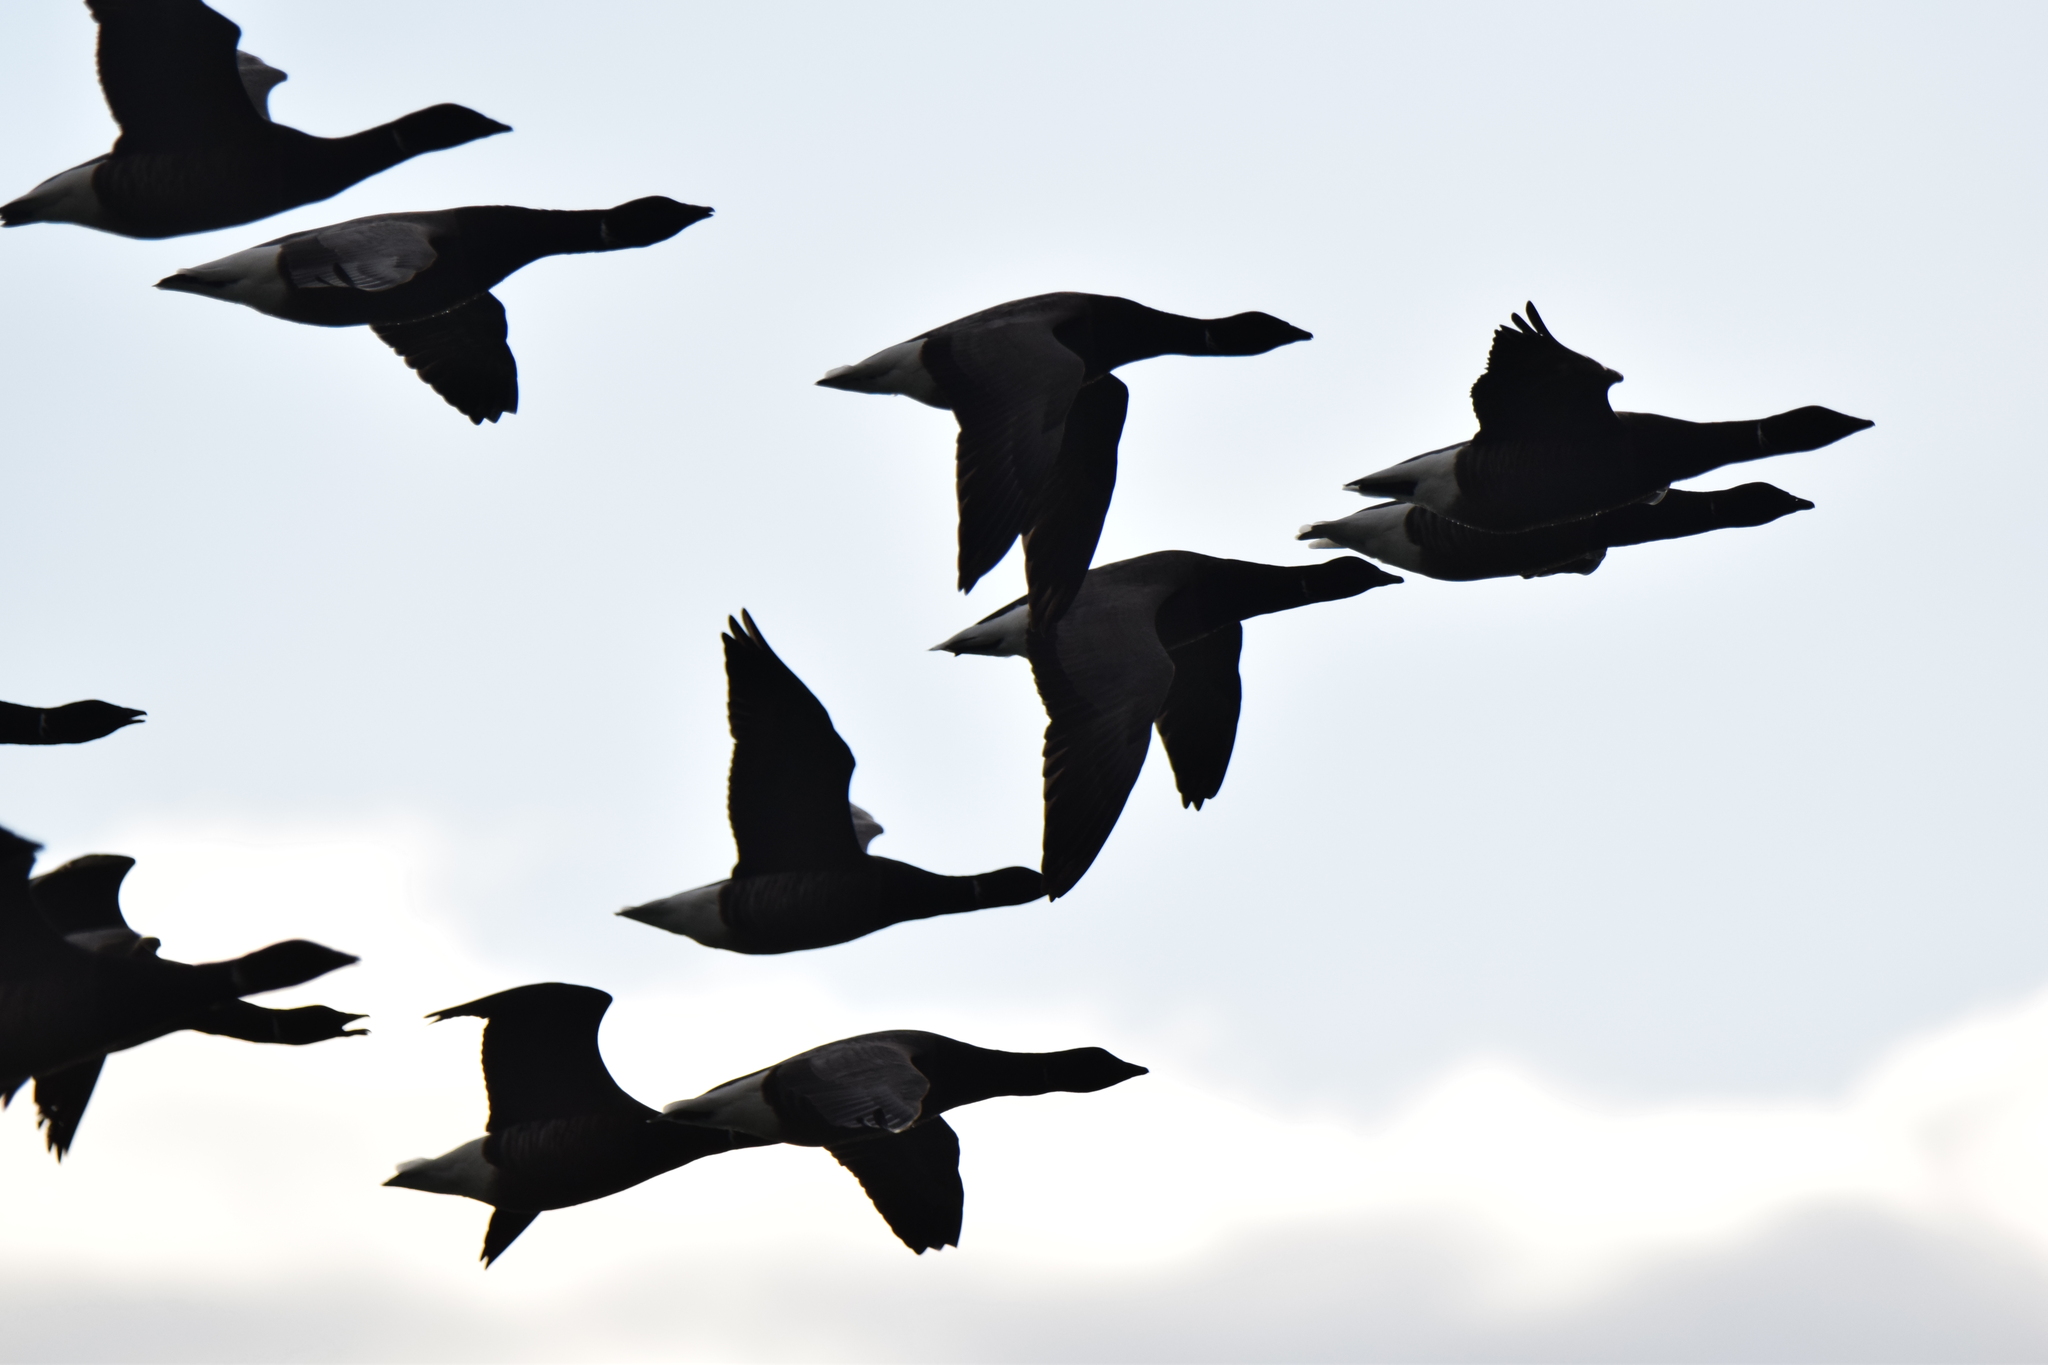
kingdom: Animalia
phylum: Chordata
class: Aves
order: Anseriformes
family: Anatidae
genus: Branta
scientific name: Branta bernicla
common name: Brant goose
